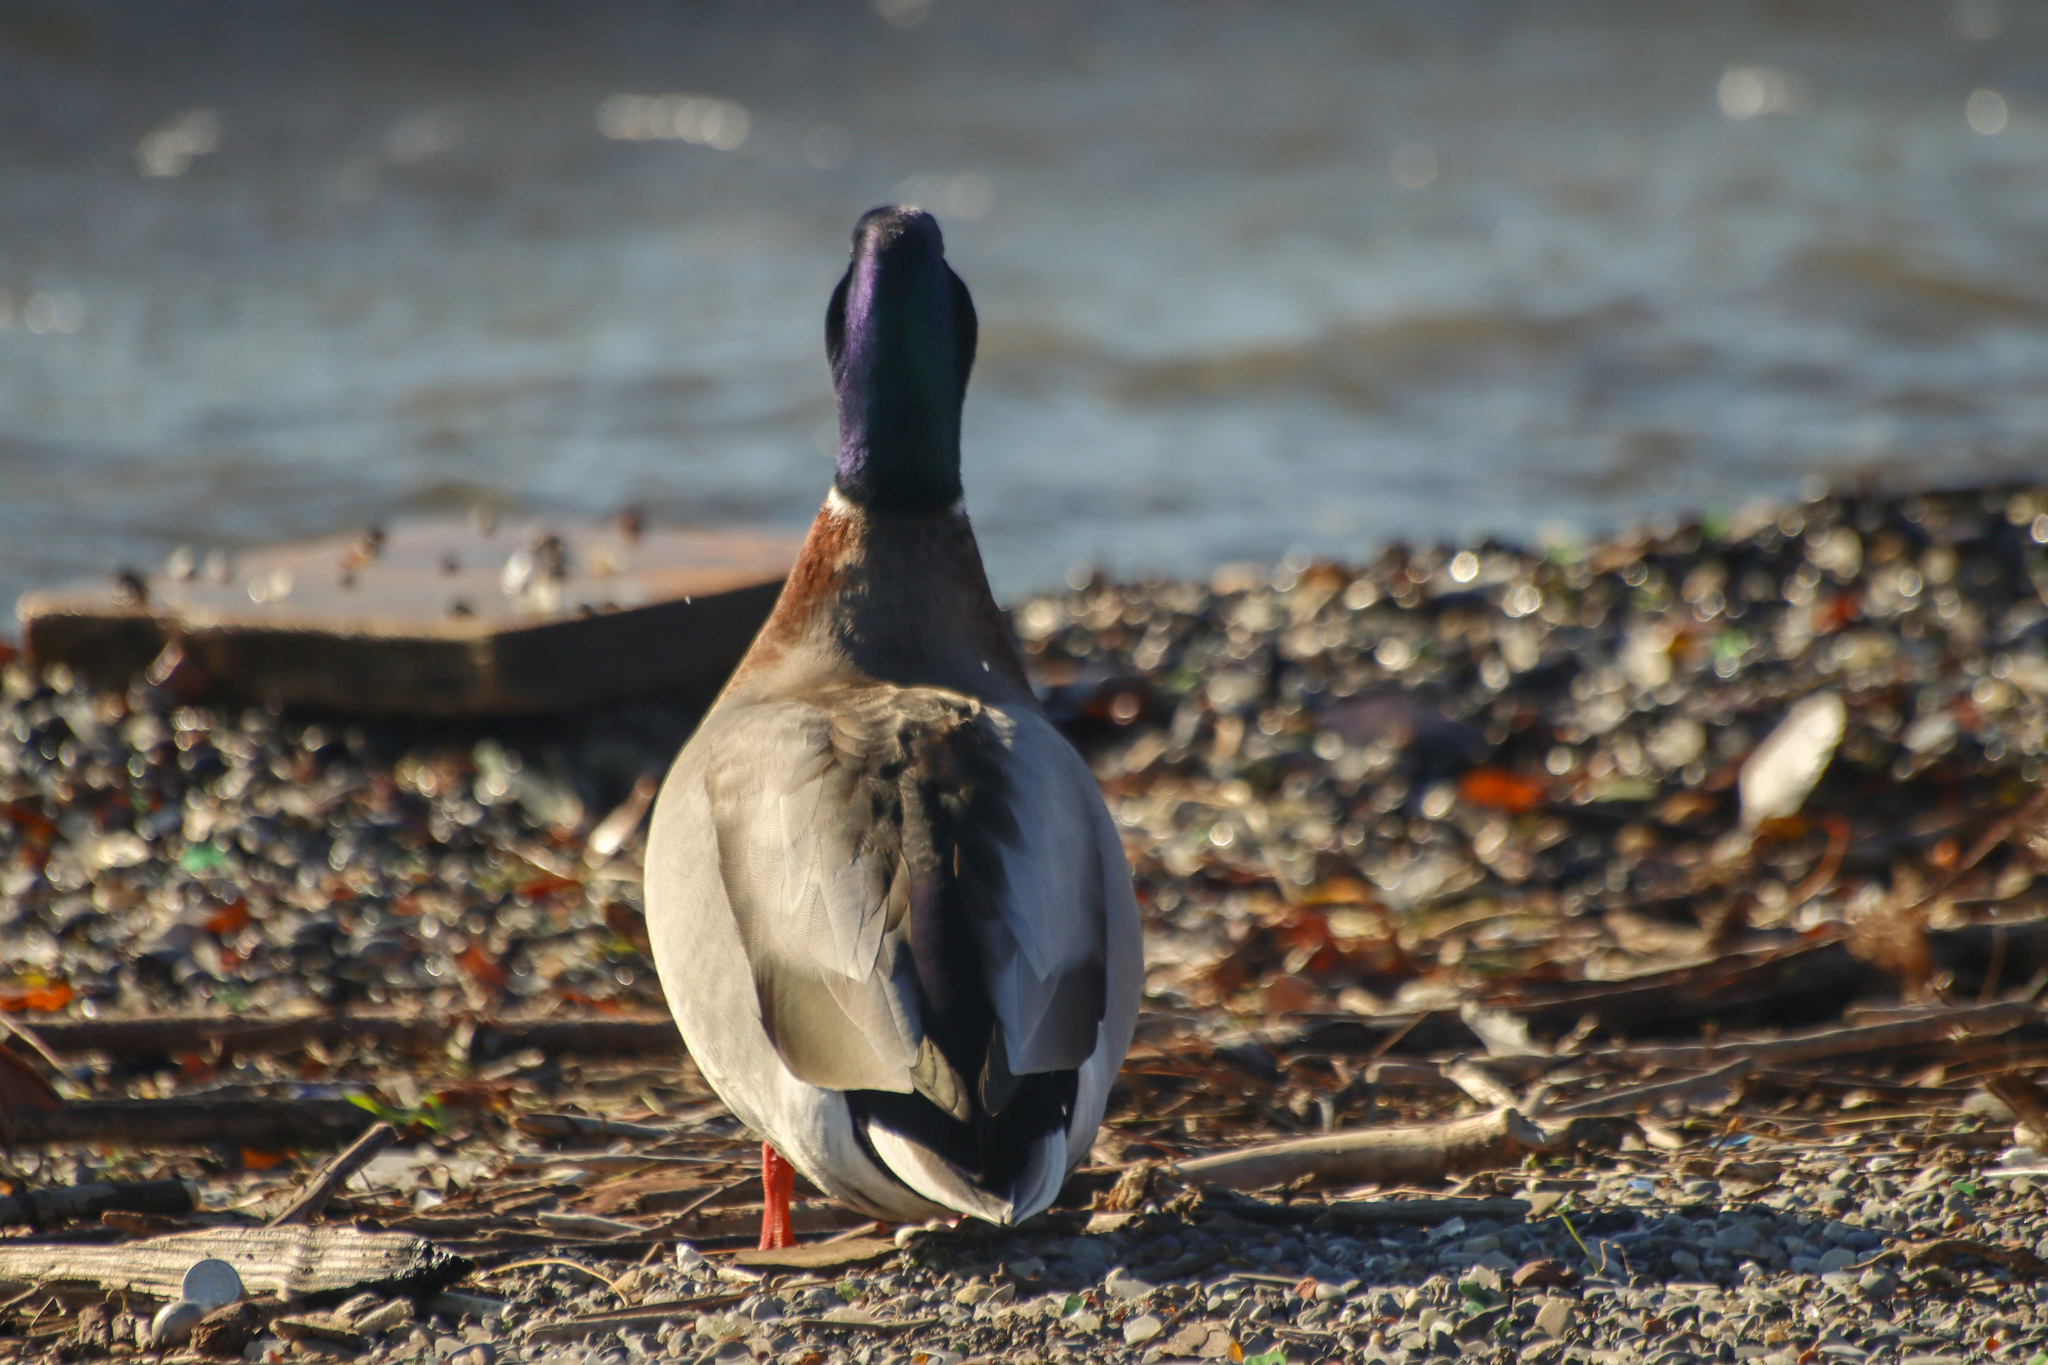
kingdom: Animalia
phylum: Chordata
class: Aves
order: Anseriformes
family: Anatidae
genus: Anas
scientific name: Anas platyrhynchos
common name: Mallard
